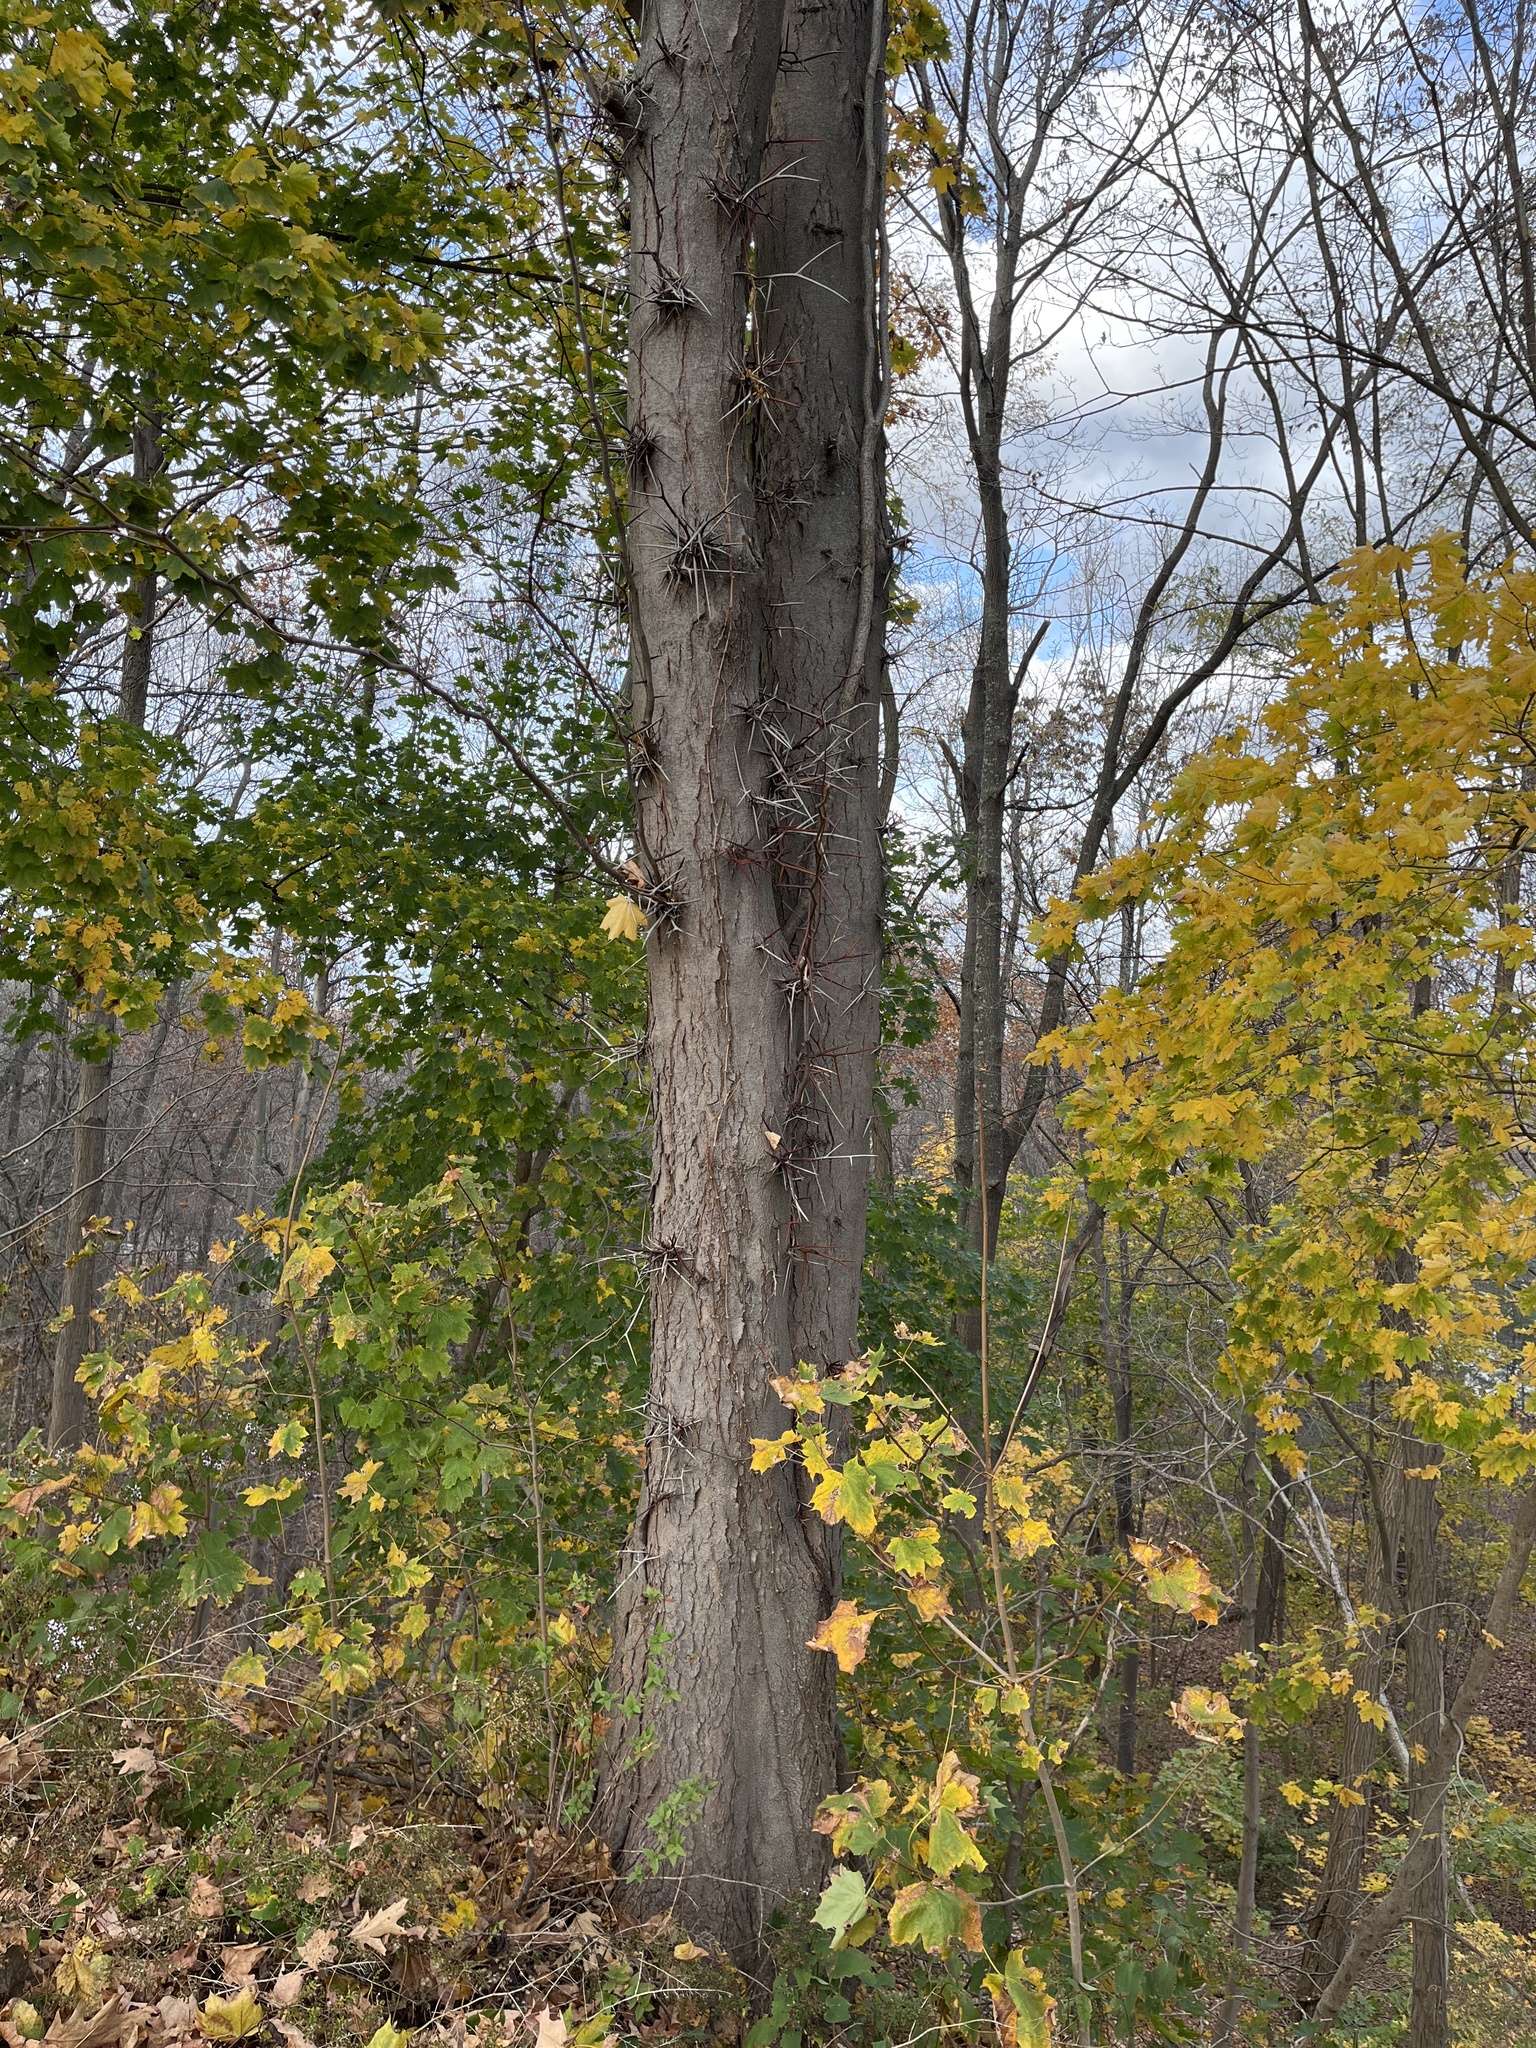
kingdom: Plantae
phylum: Tracheophyta
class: Magnoliopsida
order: Fabales
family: Fabaceae
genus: Gleditsia
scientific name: Gleditsia triacanthos
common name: Common honeylocust
